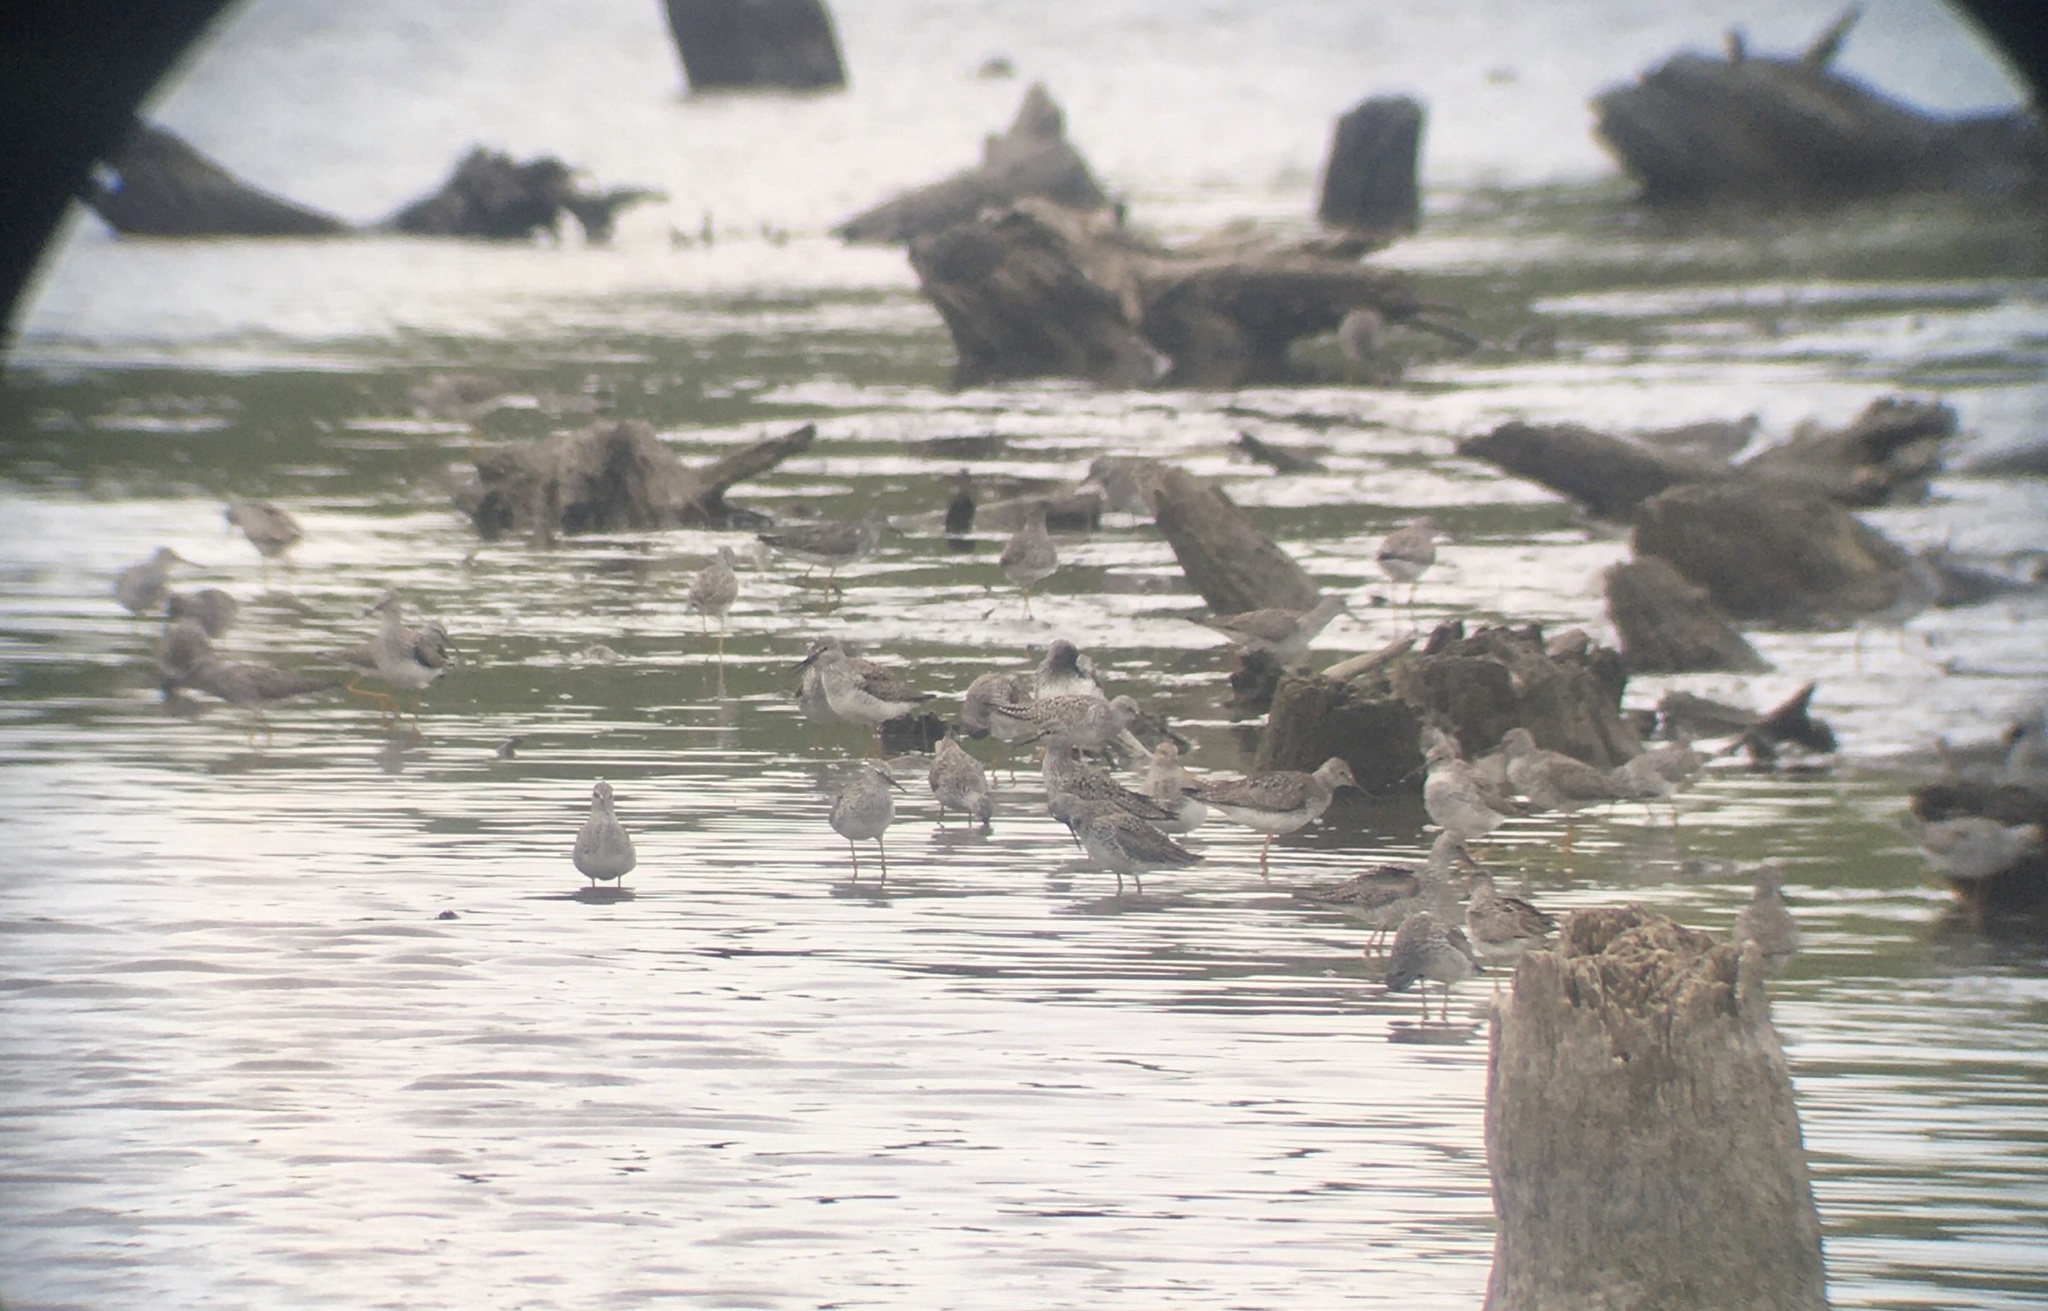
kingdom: Animalia
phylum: Chordata
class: Aves
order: Charadriiformes
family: Scolopacidae
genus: Tringa
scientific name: Tringa flavipes
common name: Lesser yellowlegs
